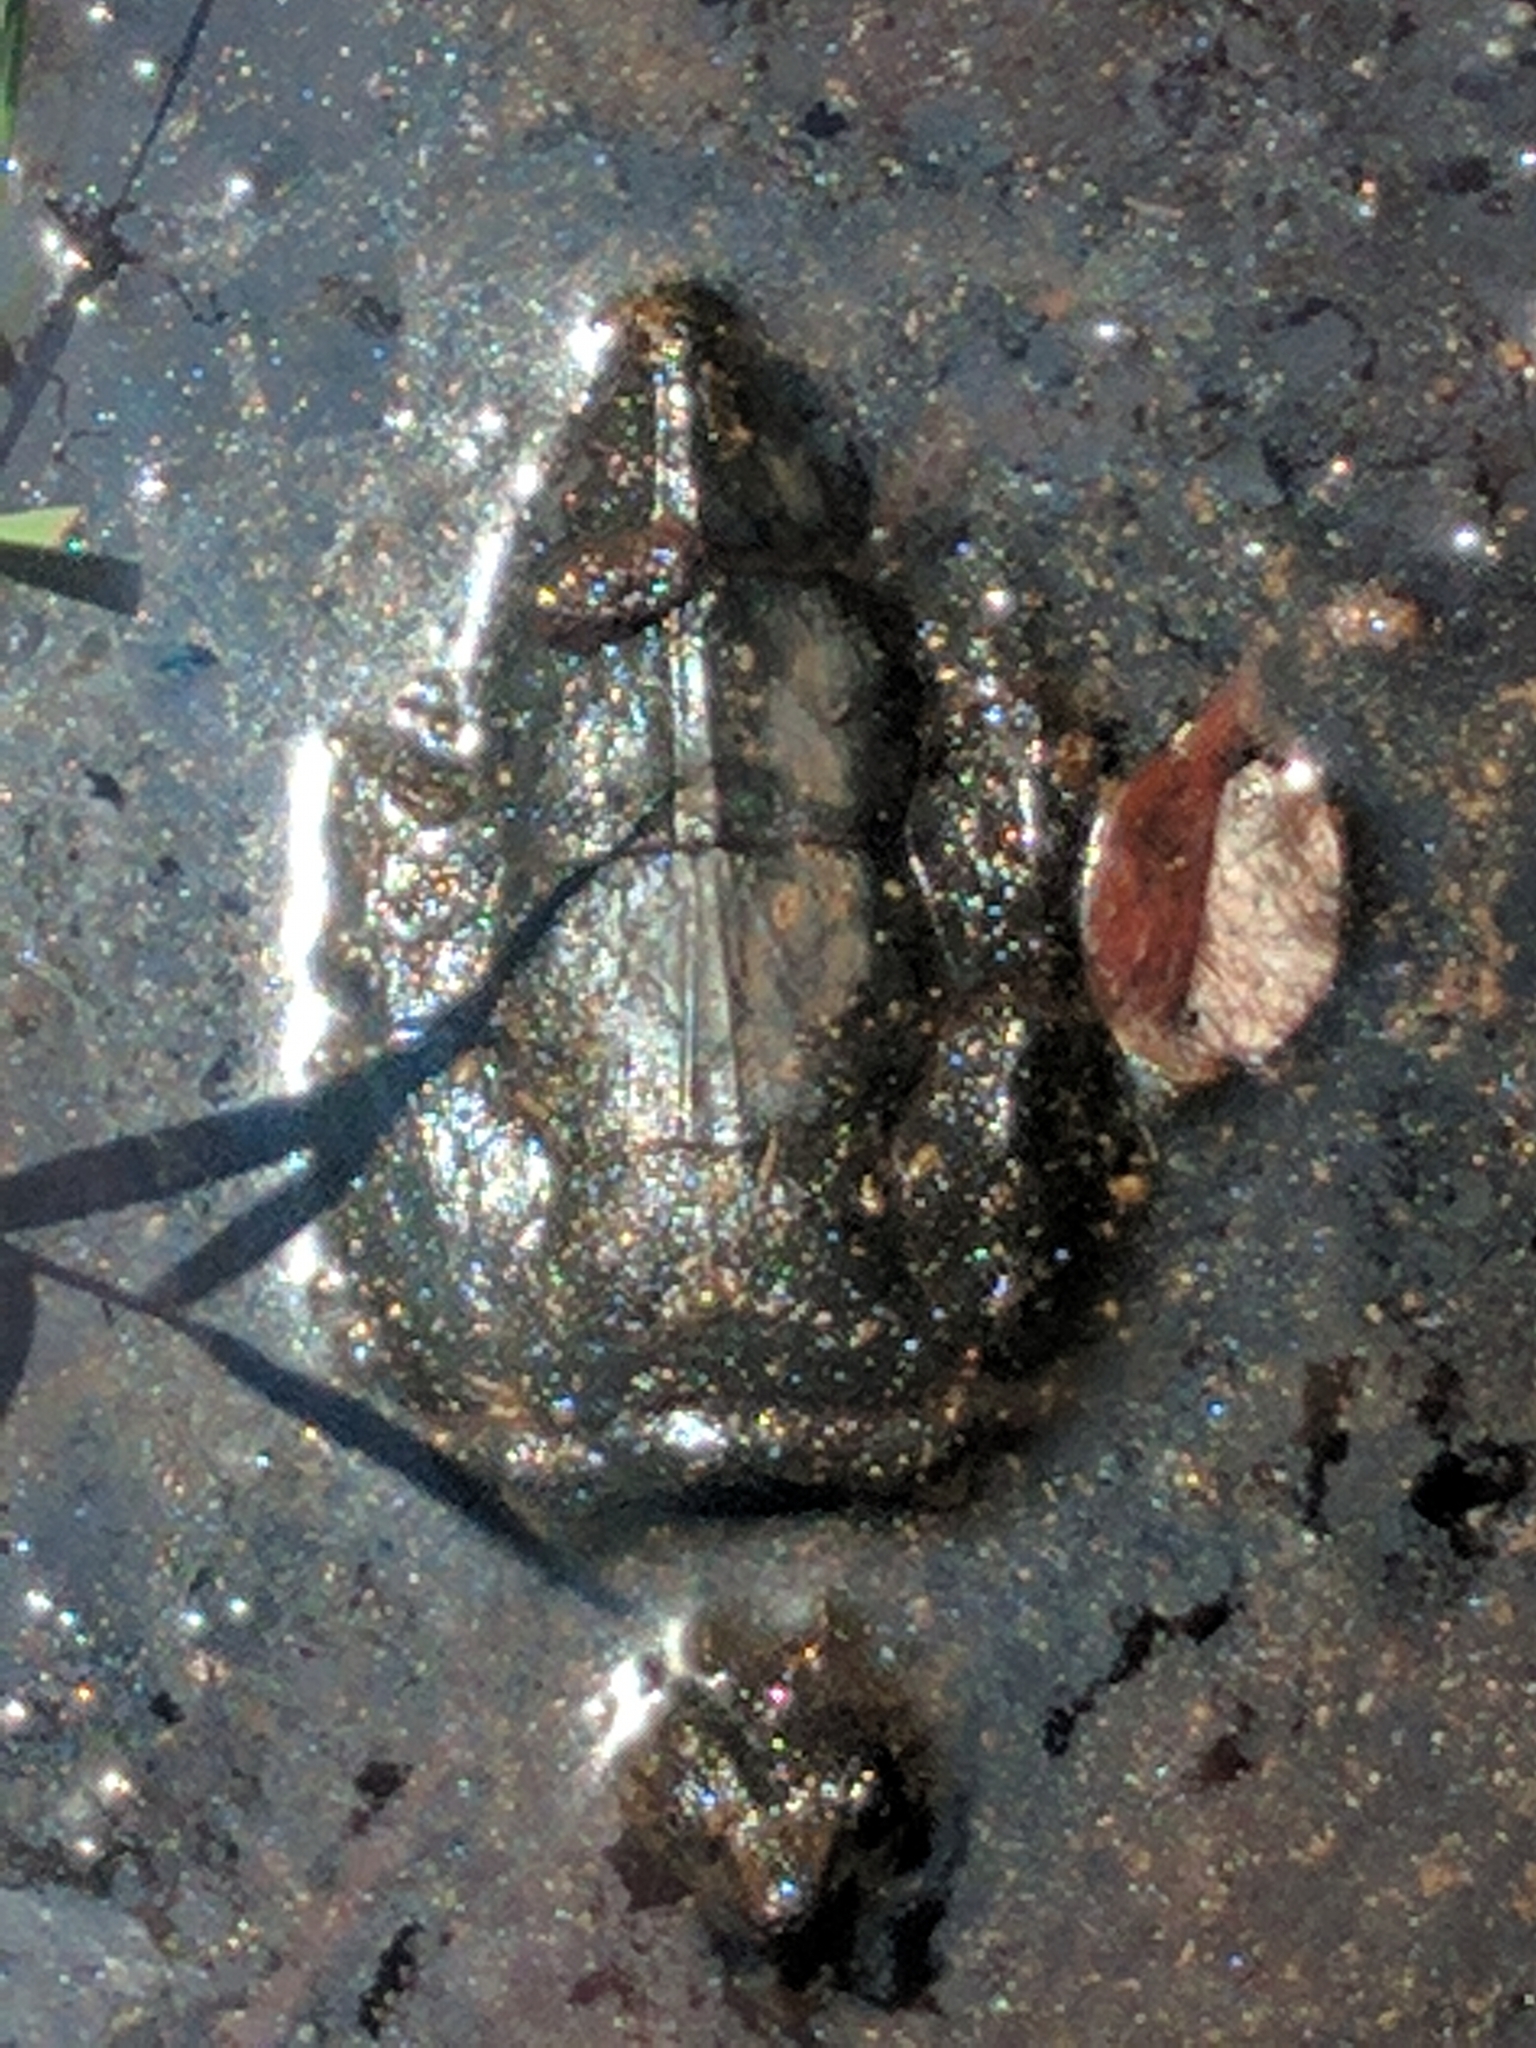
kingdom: Animalia
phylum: Chordata
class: Testudines
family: Chelydridae
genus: Chelydra
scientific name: Chelydra serpentina
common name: Common snapping turtle
